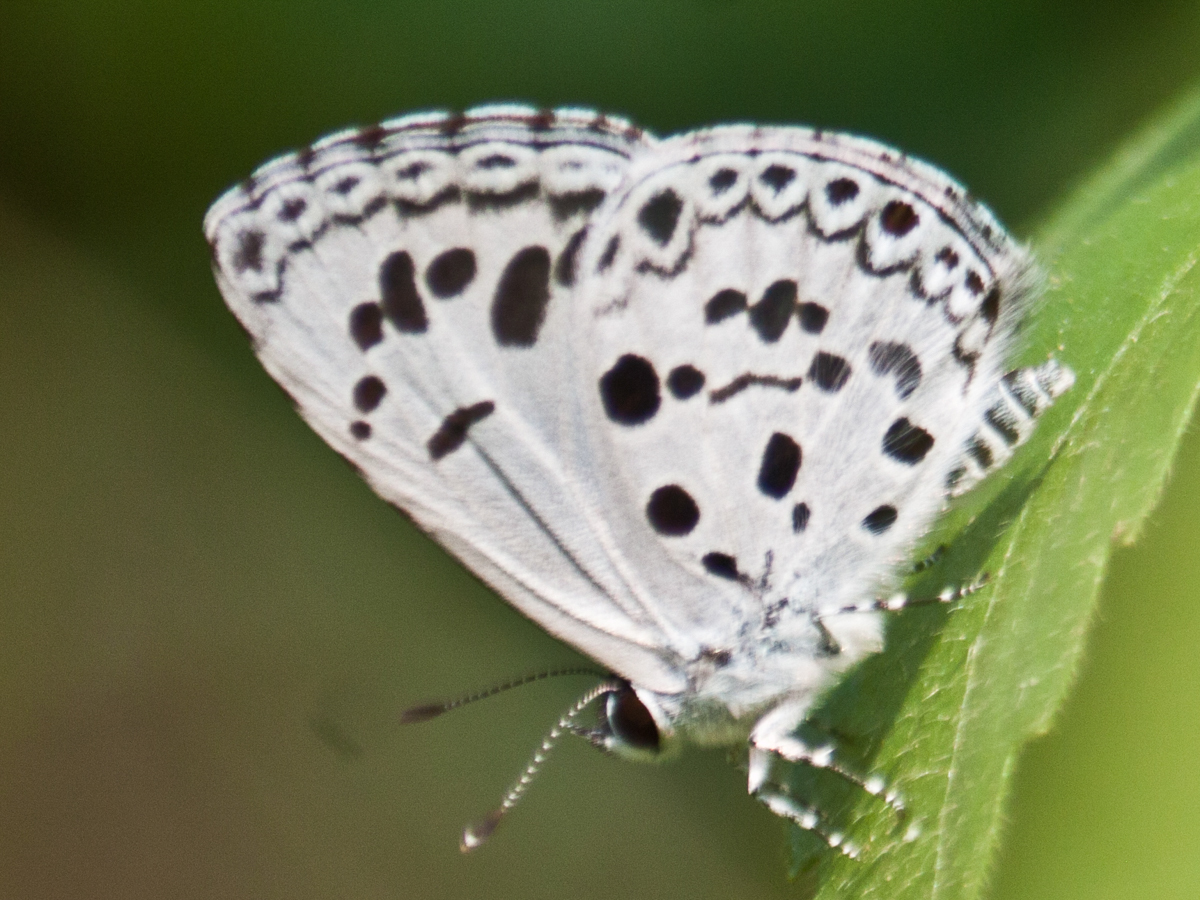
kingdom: Animalia
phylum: Arthropoda
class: Insecta
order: Lepidoptera
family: Lycaenidae
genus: Acytolepis
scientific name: Acytolepis puspa
